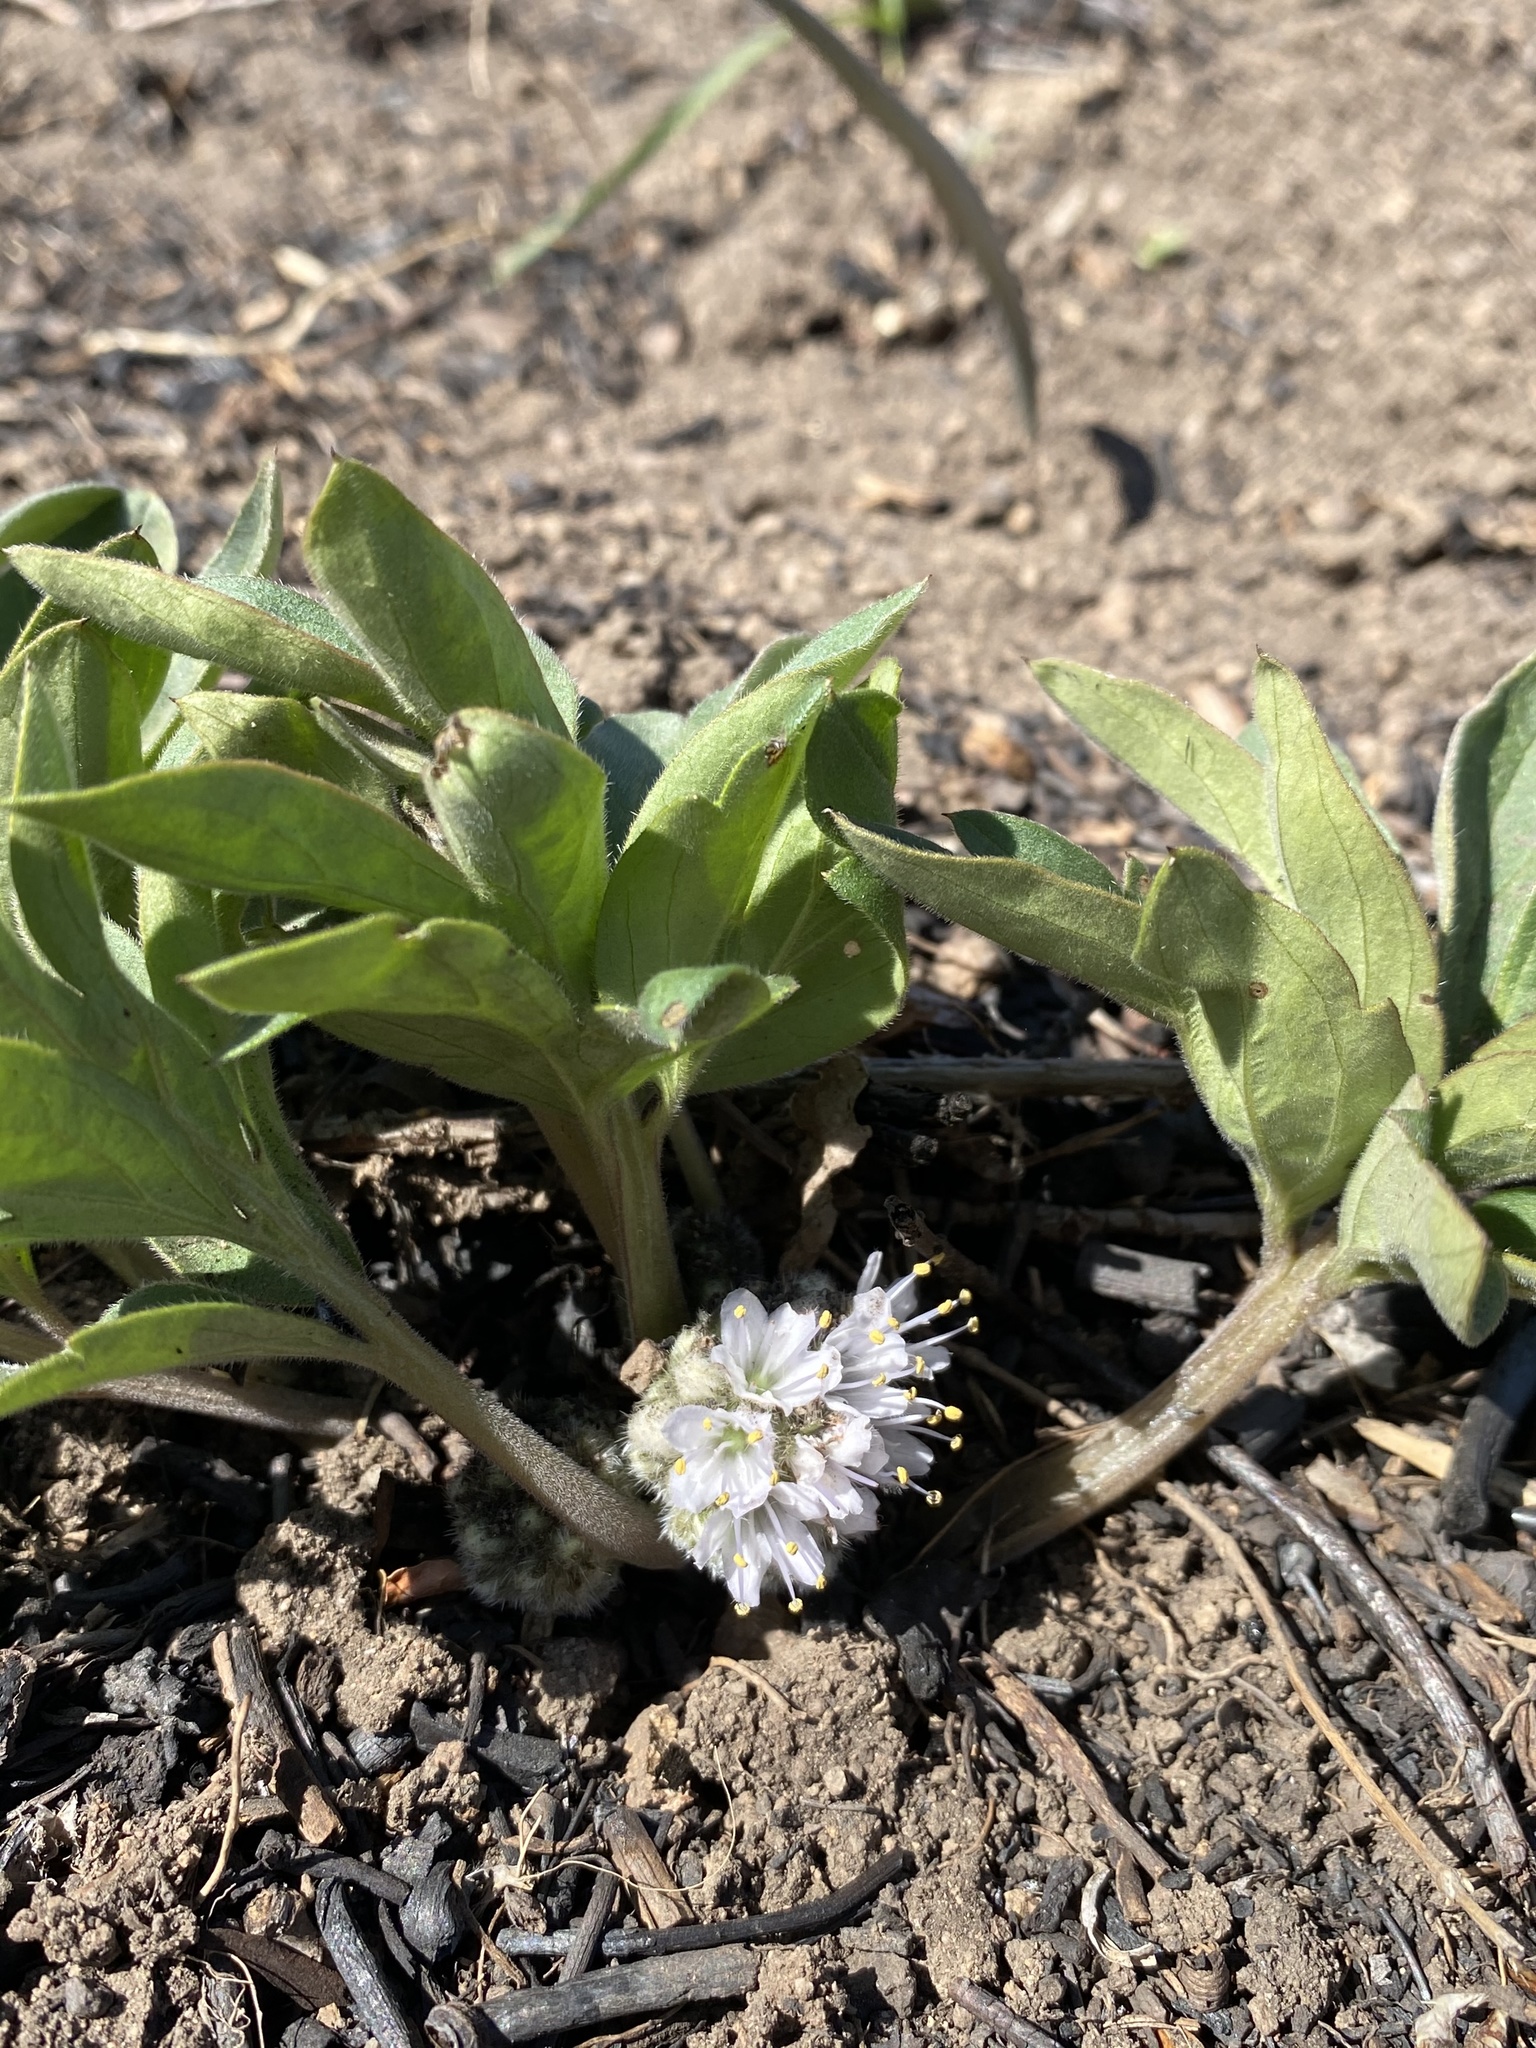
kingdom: Plantae
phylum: Tracheophyta
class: Magnoliopsida
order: Boraginales
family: Hydrophyllaceae
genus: Hydrophyllum
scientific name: Hydrophyllum capitatum
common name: Woollen-breeches
